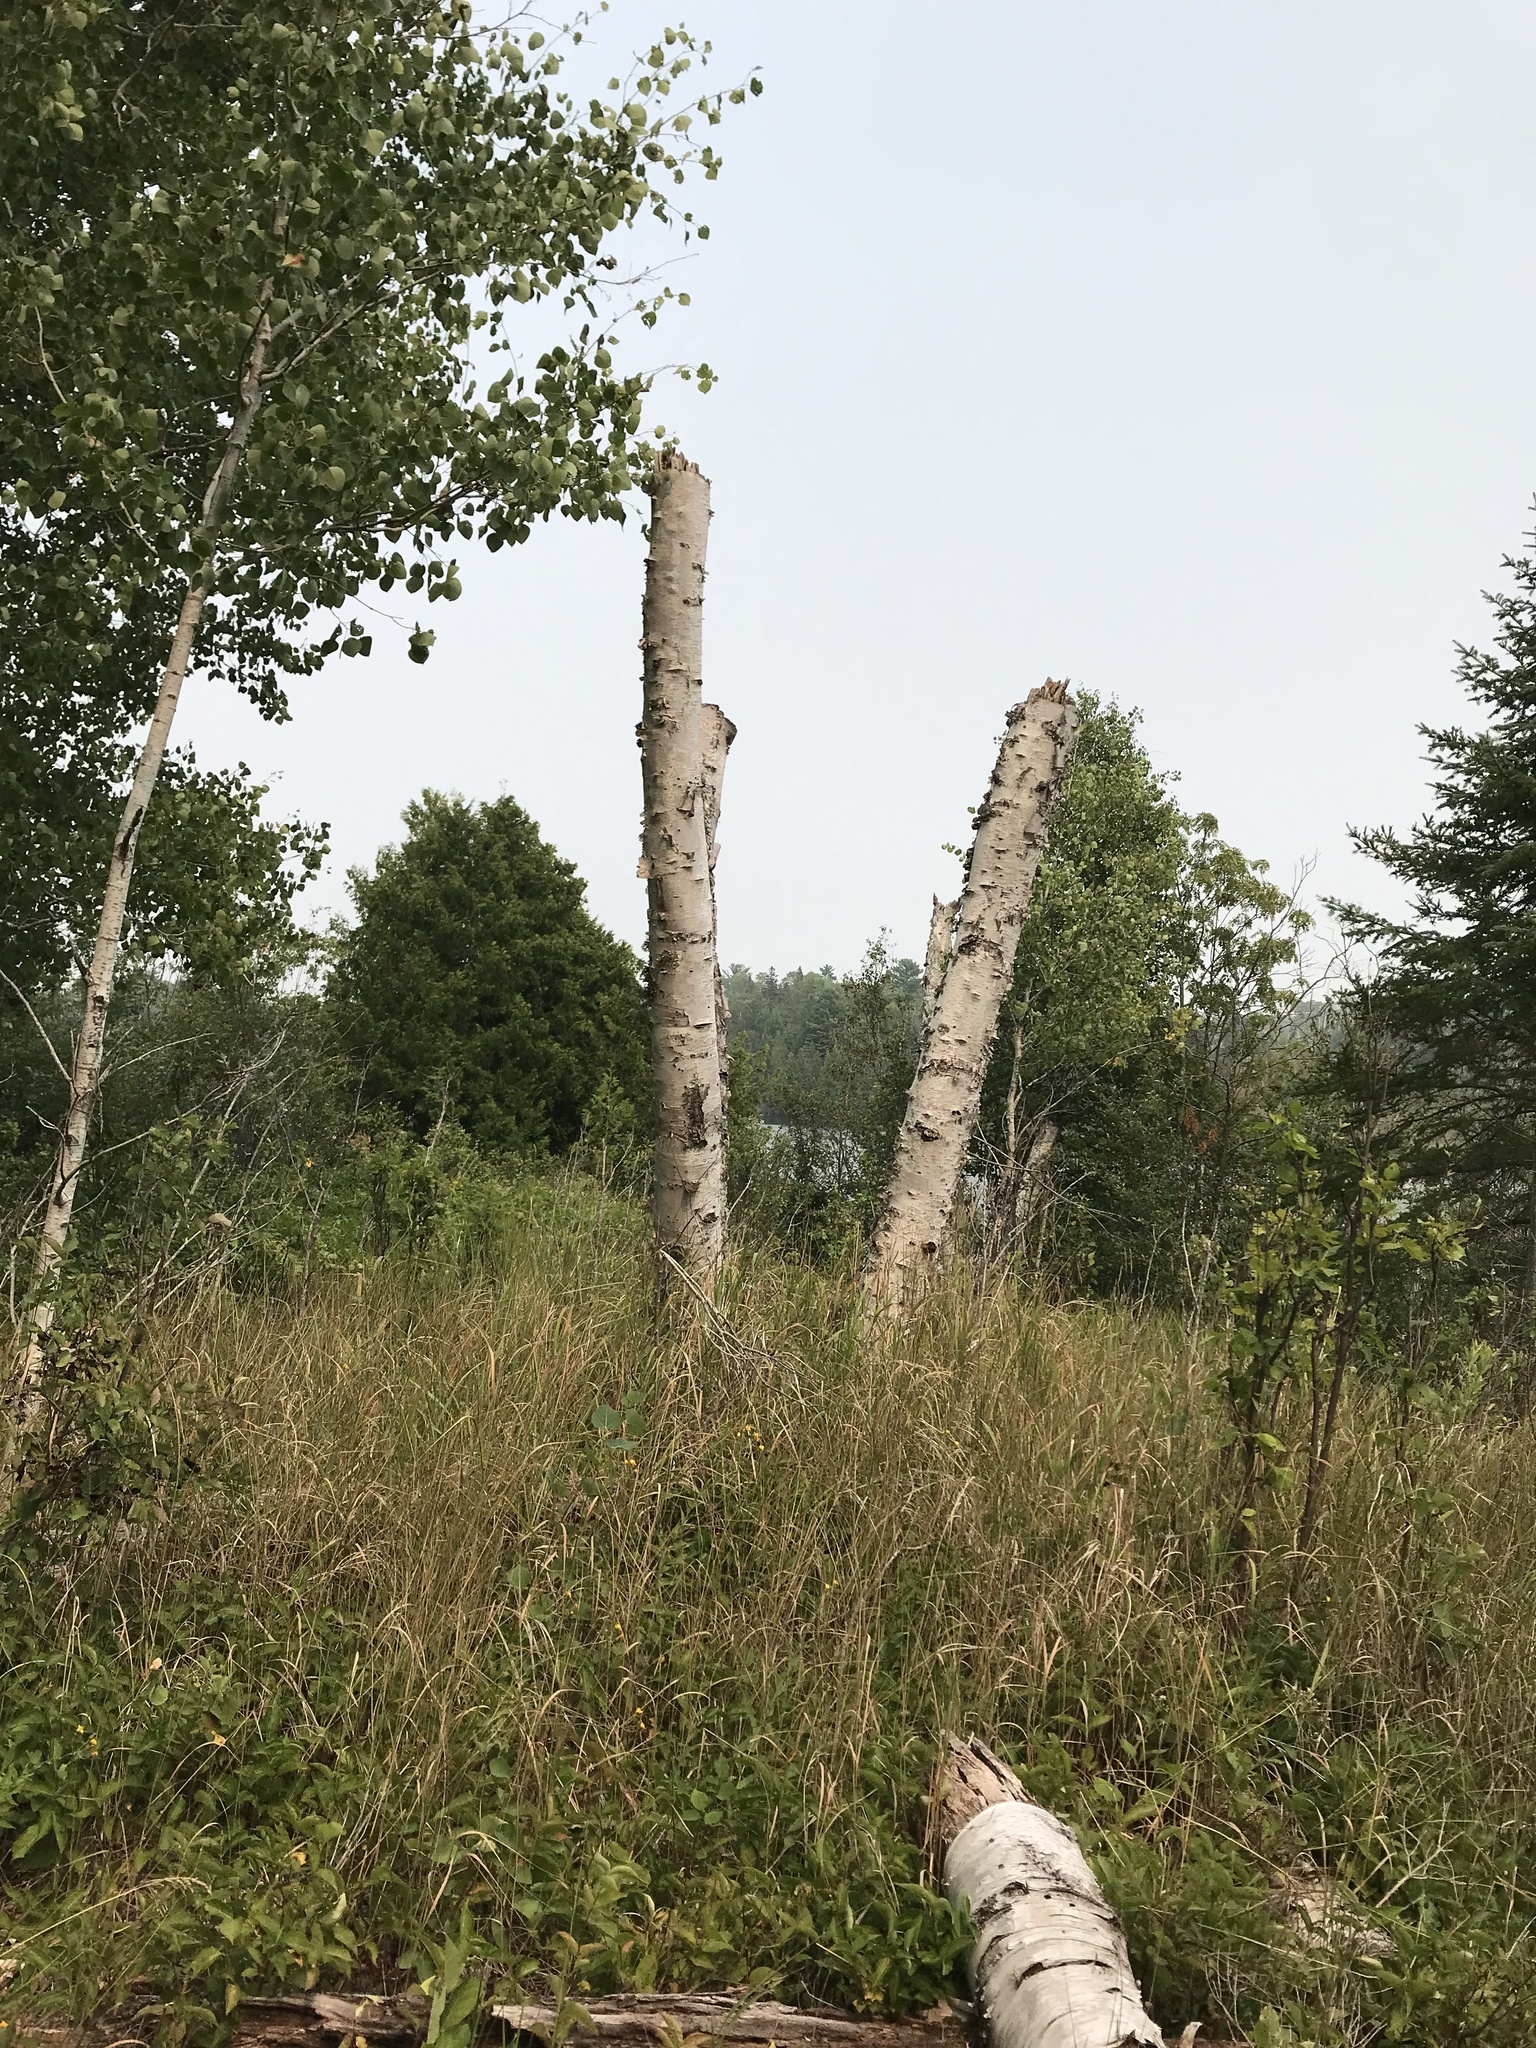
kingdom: Plantae
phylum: Tracheophyta
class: Magnoliopsida
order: Fagales
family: Betulaceae
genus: Betula
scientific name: Betula papyrifera
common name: Paper birch
